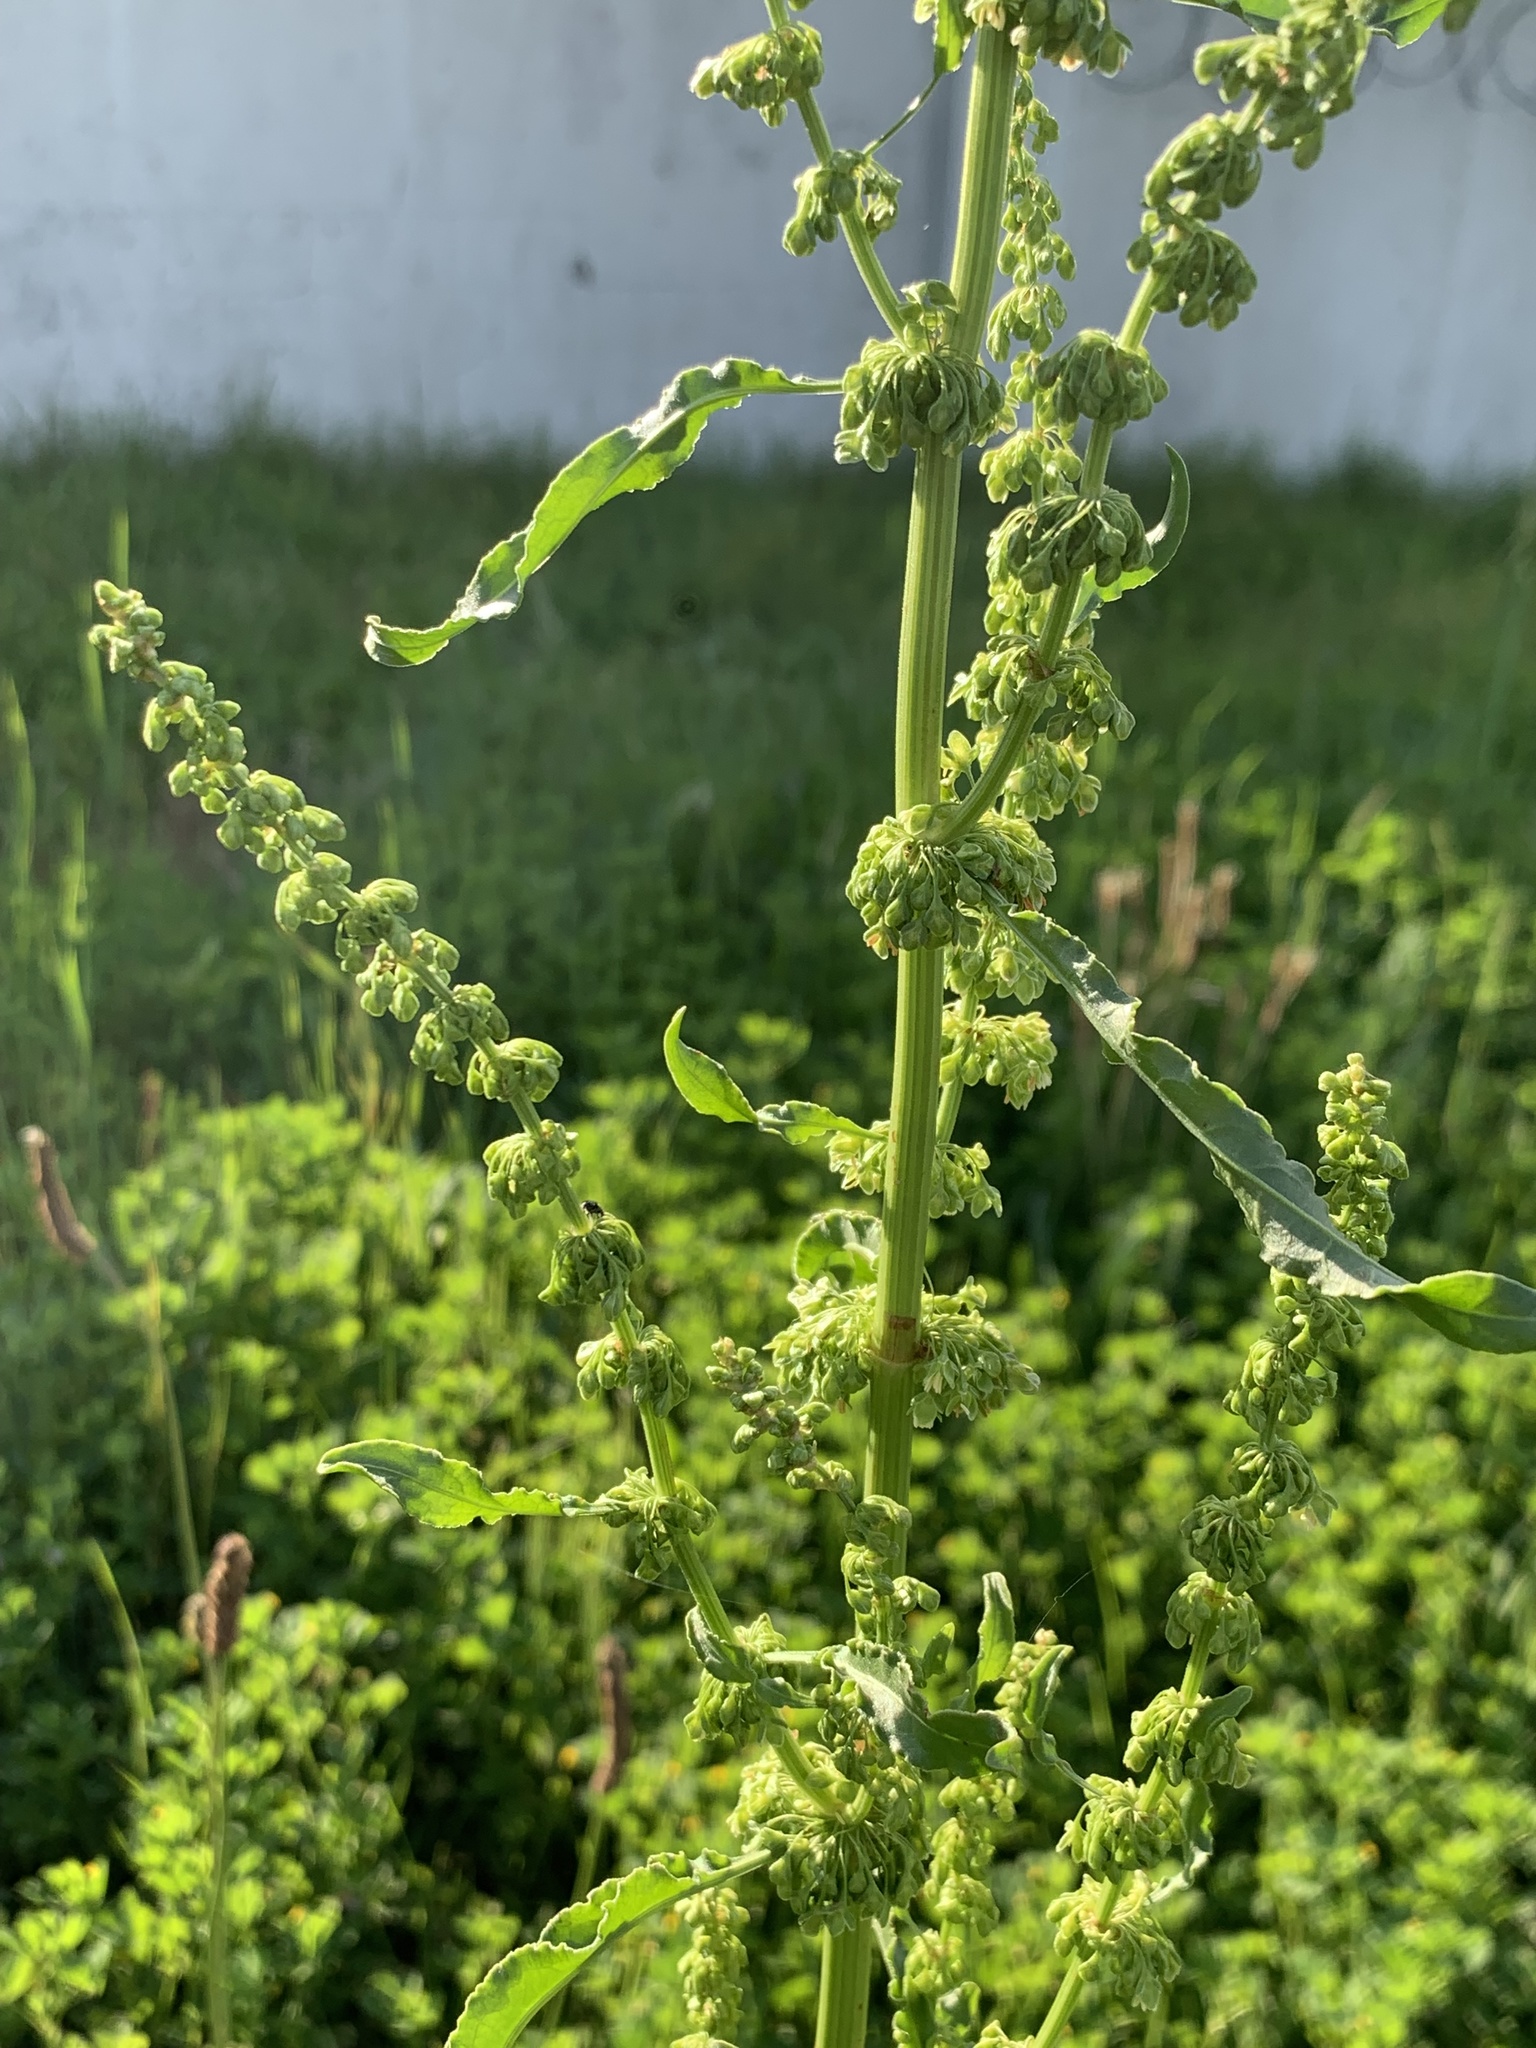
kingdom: Plantae
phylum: Tracheophyta
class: Magnoliopsida
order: Caryophyllales
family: Polygonaceae
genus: Rumex
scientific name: Rumex crispus
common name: Curled dock
